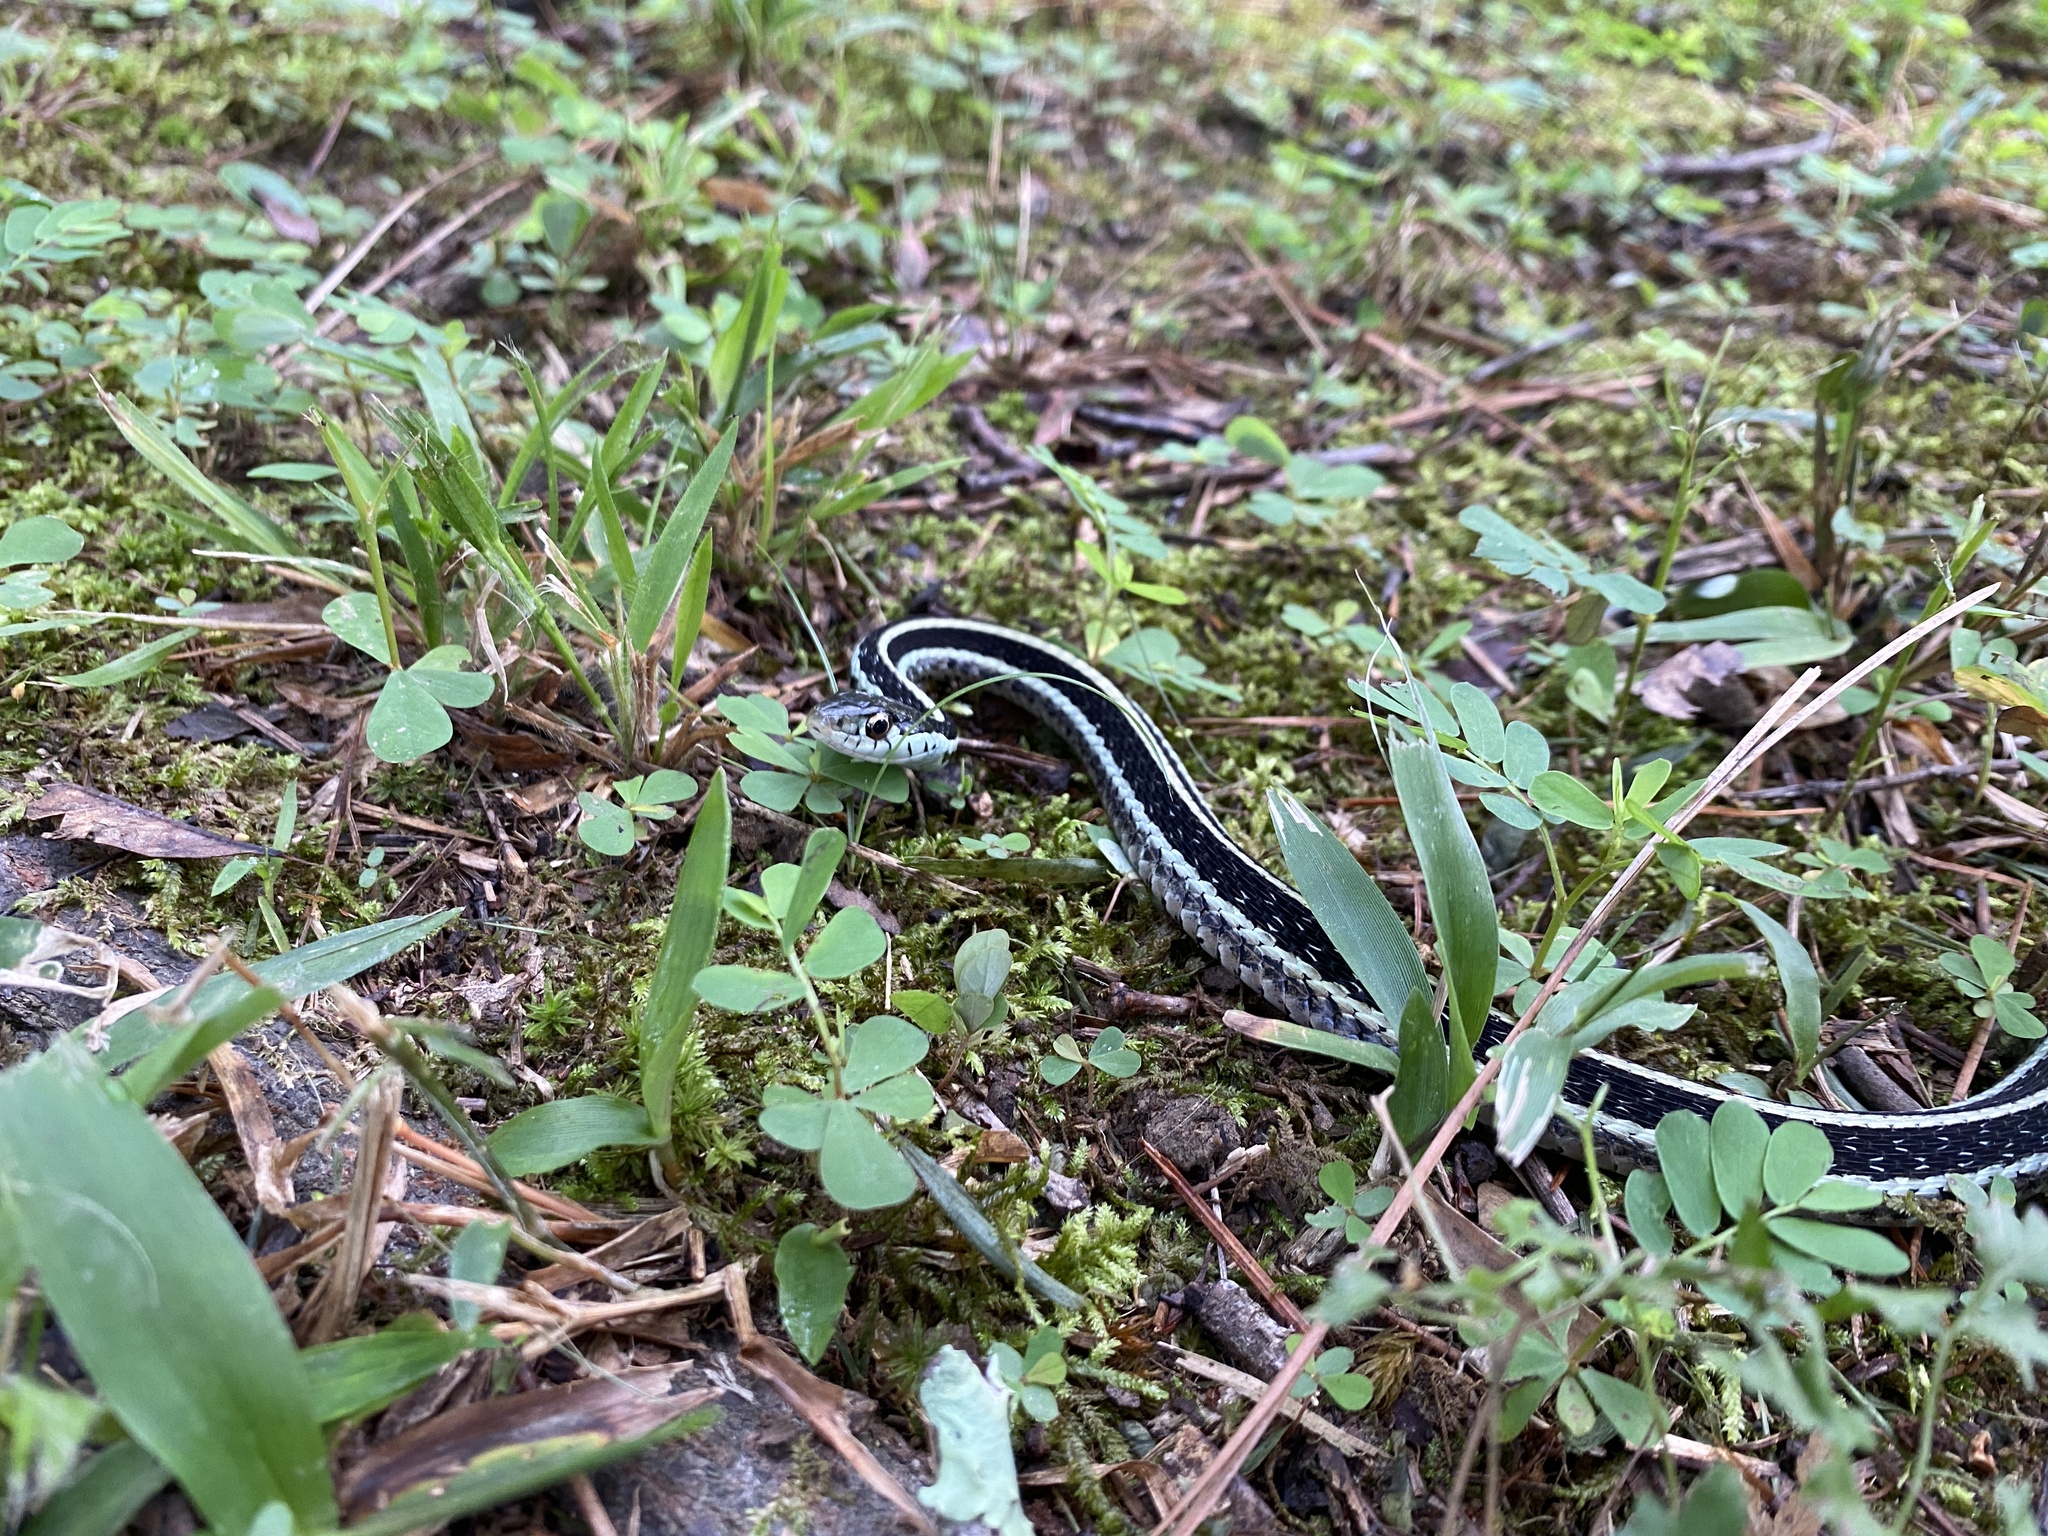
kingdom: Animalia
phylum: Chordata
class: Squamata
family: Colubridae
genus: Thamnophis
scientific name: Thamnophis proximus
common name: Western ribbon snake
